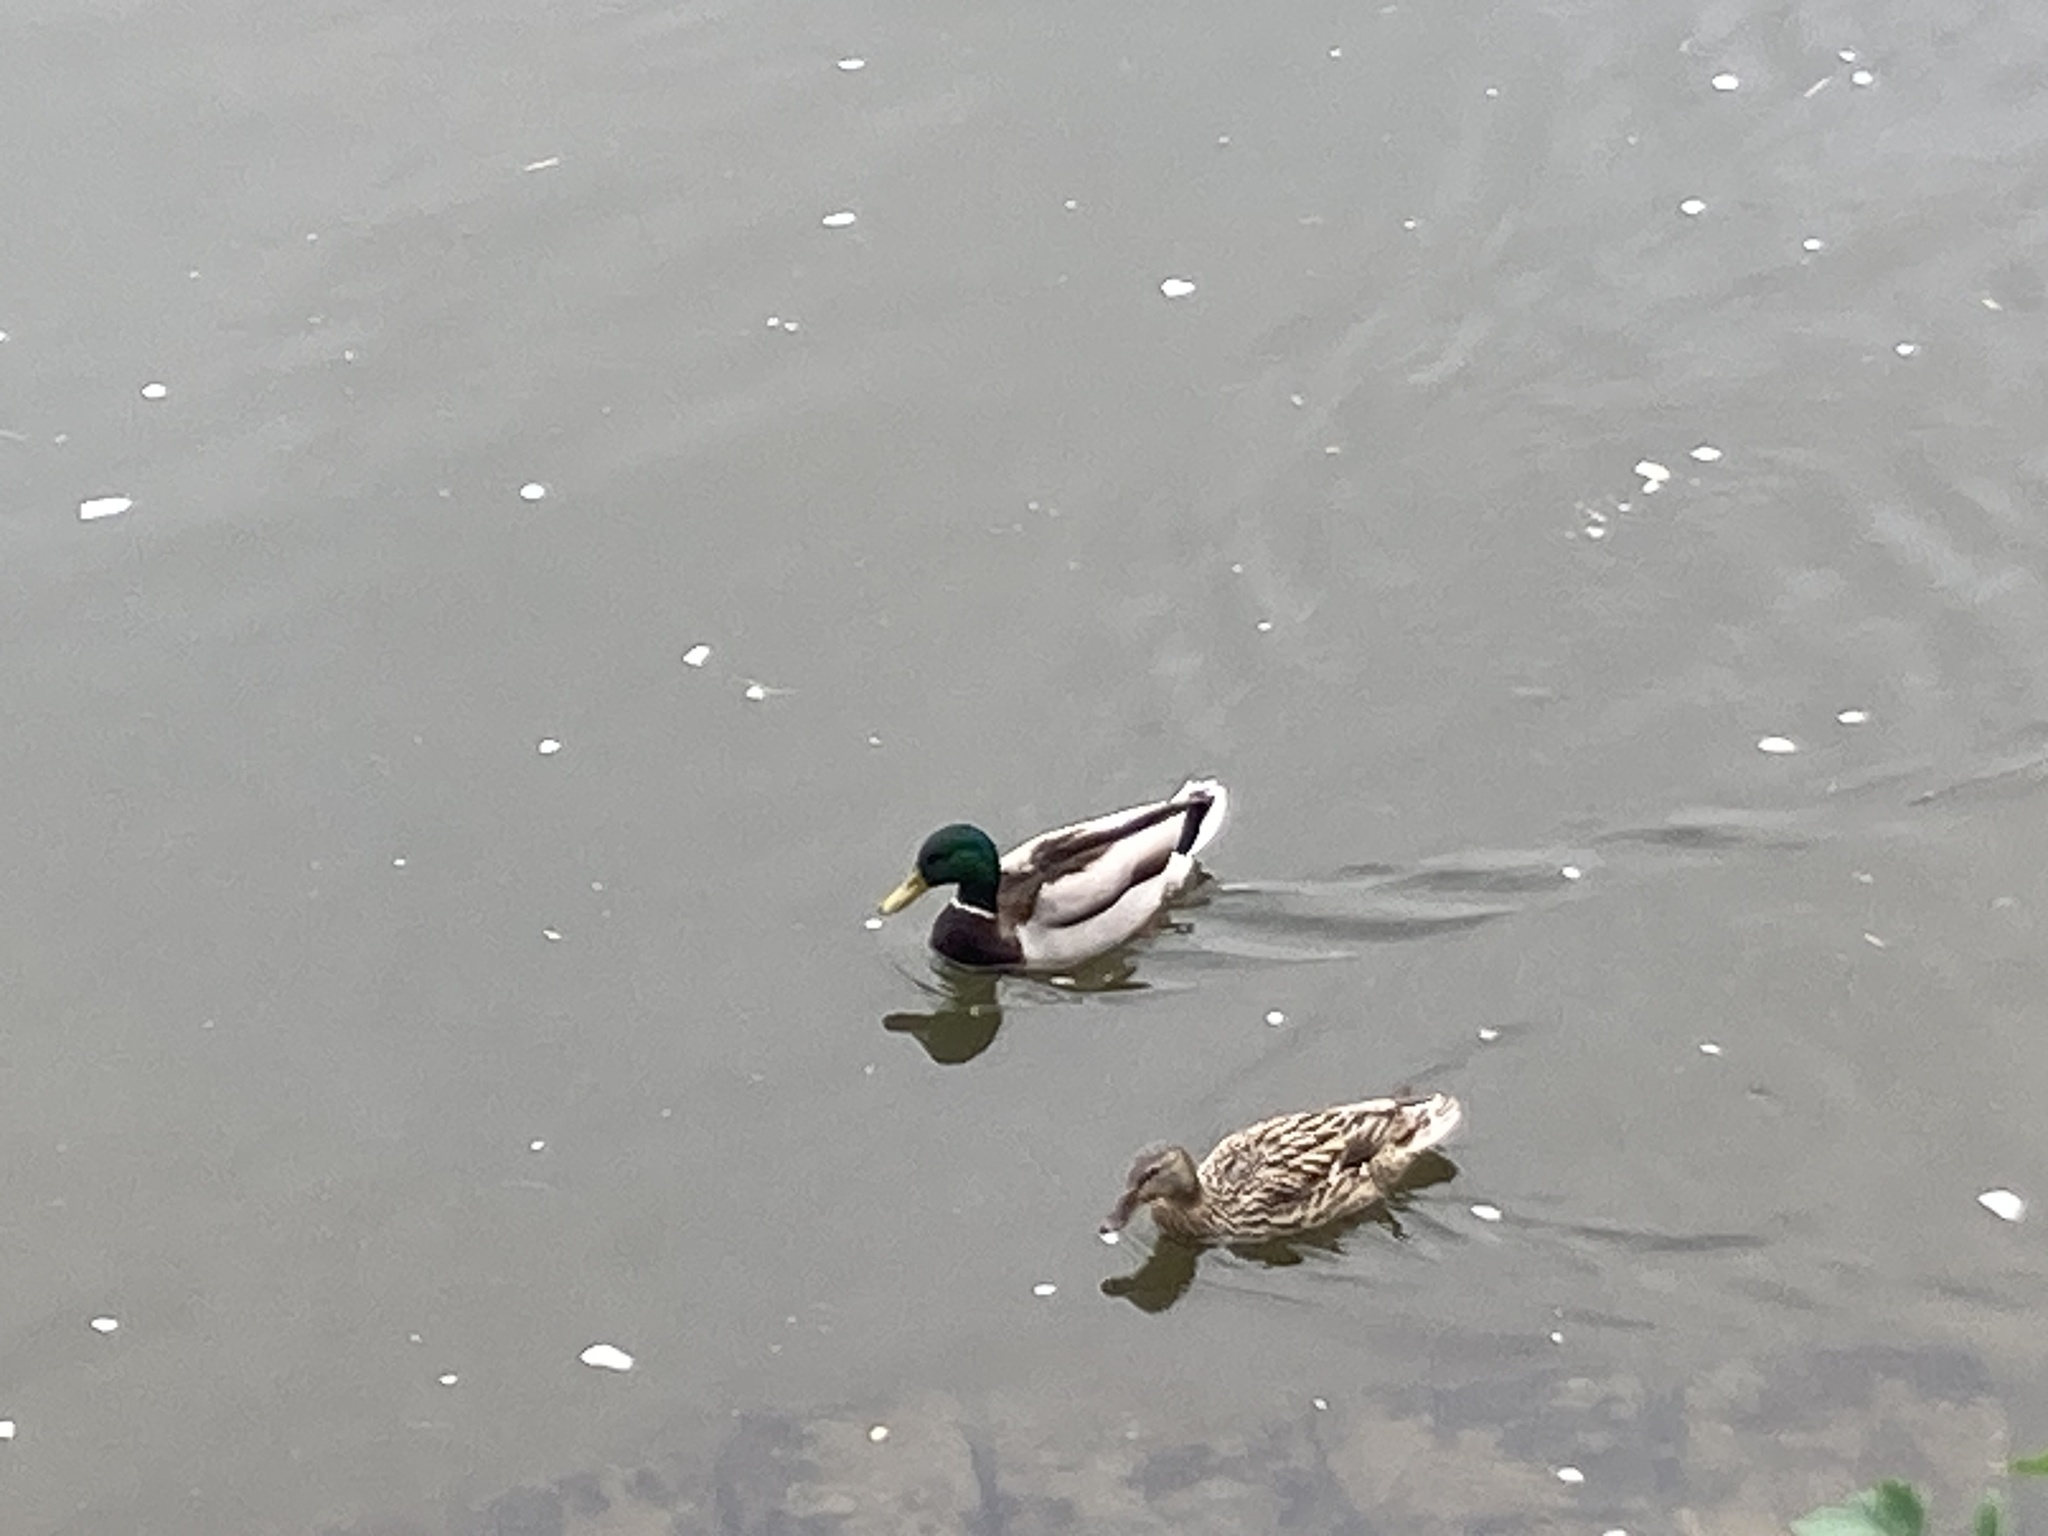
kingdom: Animalia
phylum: Chordata
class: Aves
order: Anseriformes
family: Anatidae
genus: Anas
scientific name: Anas platyrhynchos
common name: Mallard
